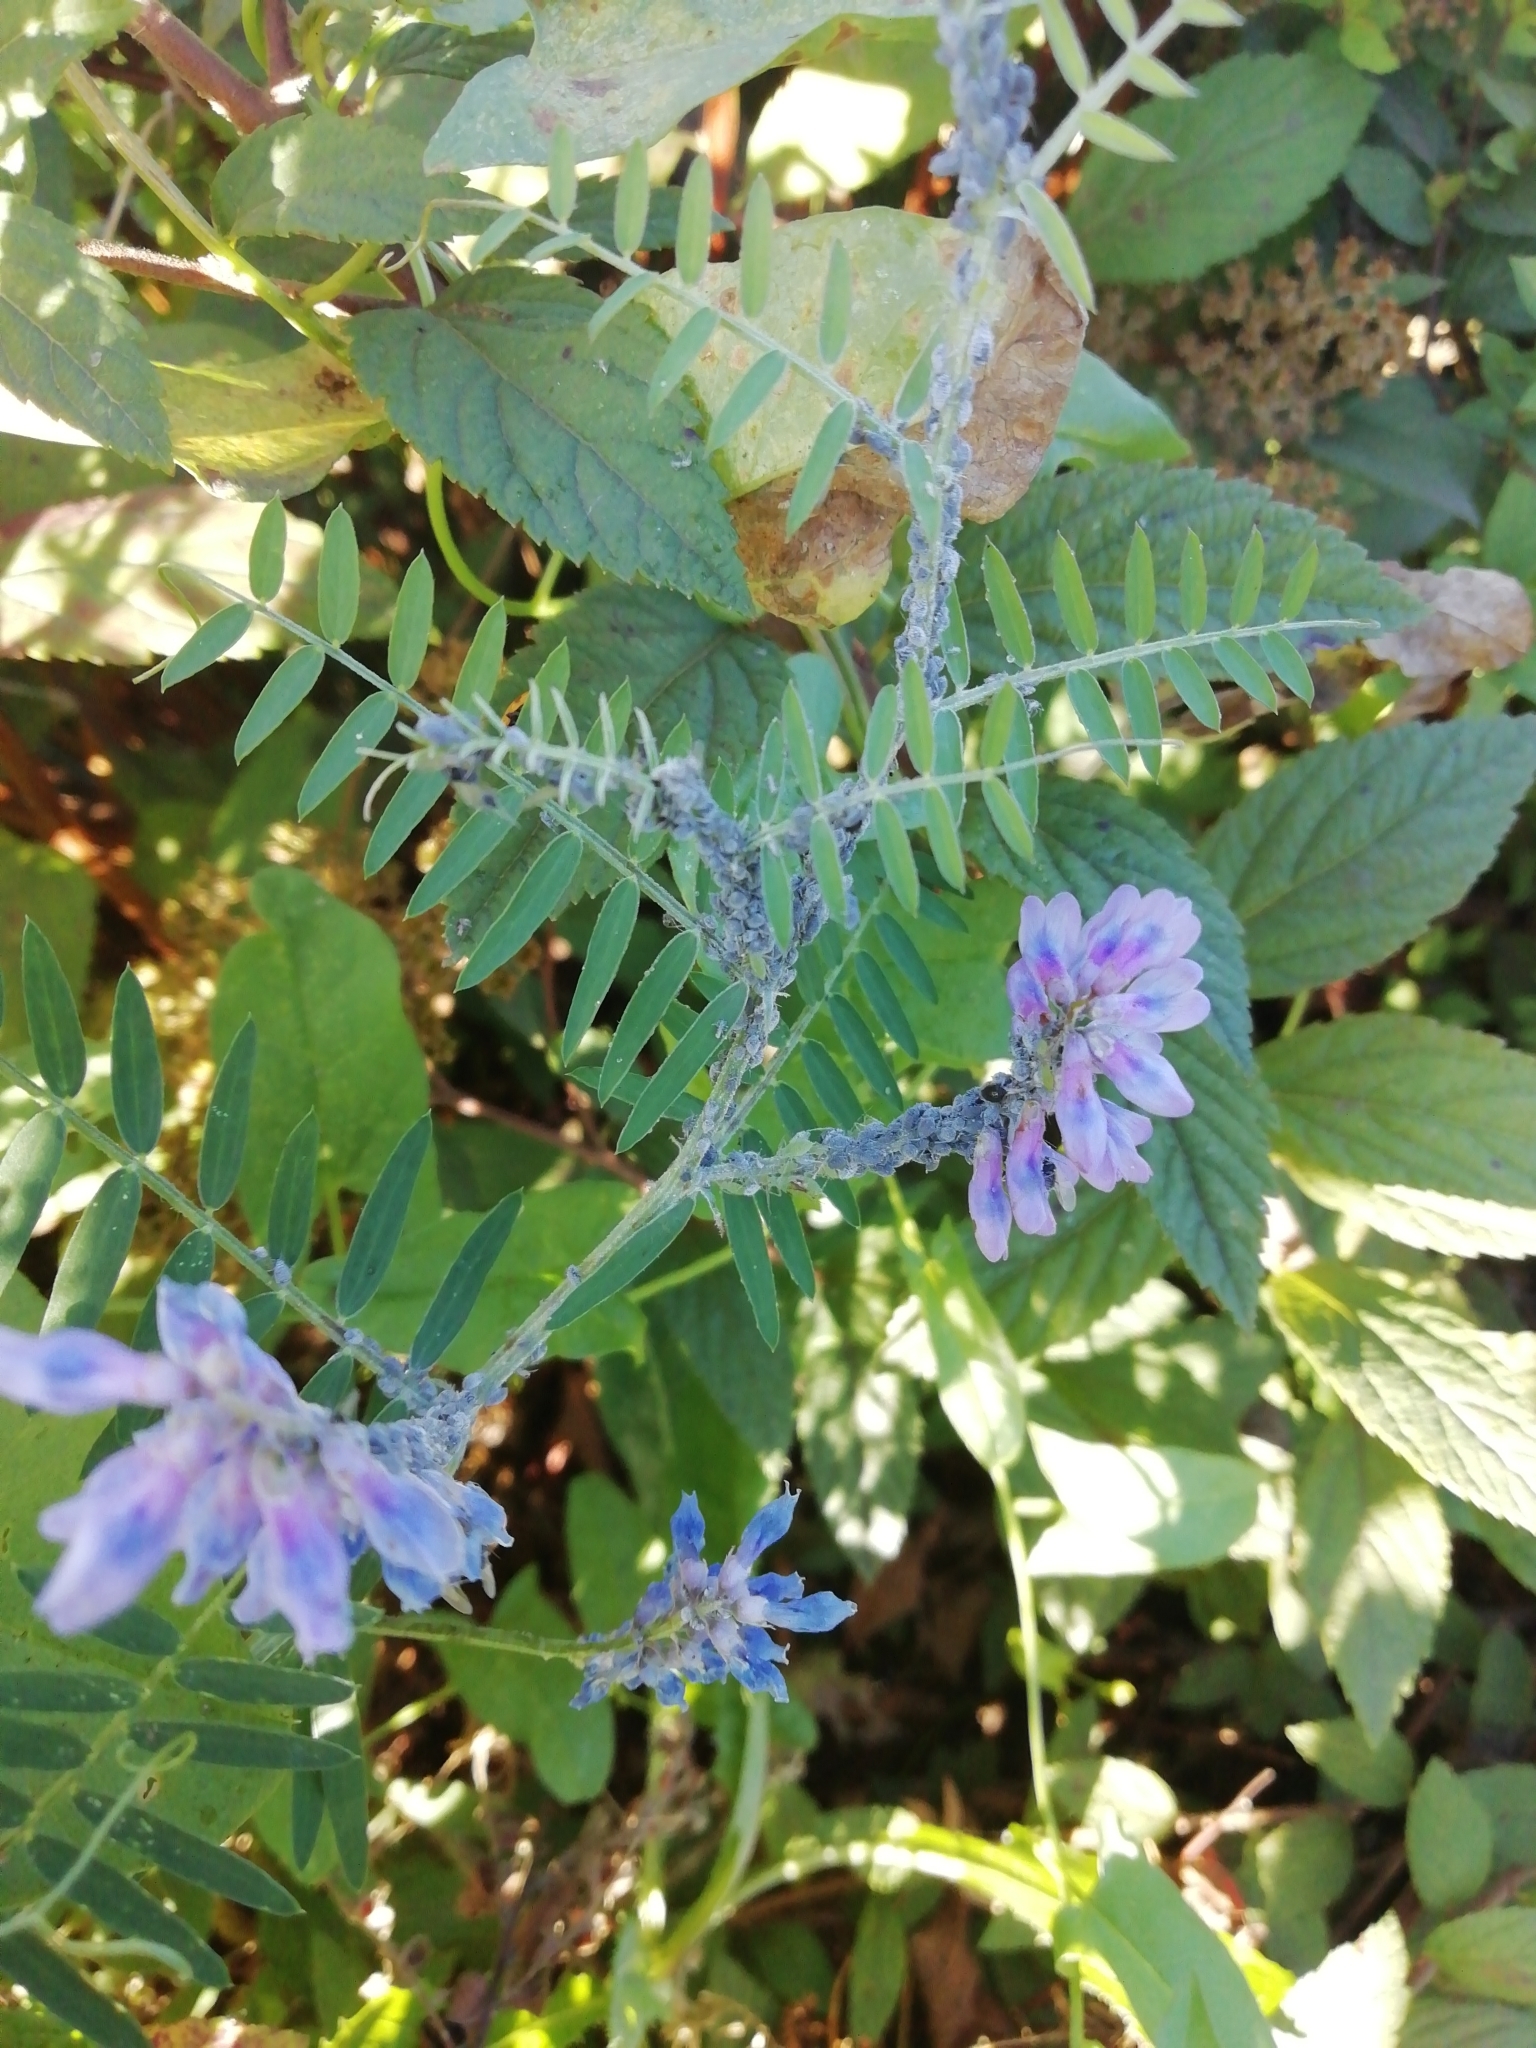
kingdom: Plantae
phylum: Tracheophyta
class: Magnoliopsida
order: Fabales
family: Fabaceae
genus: Vicia
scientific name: Vicia cracca
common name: Bird vetch
